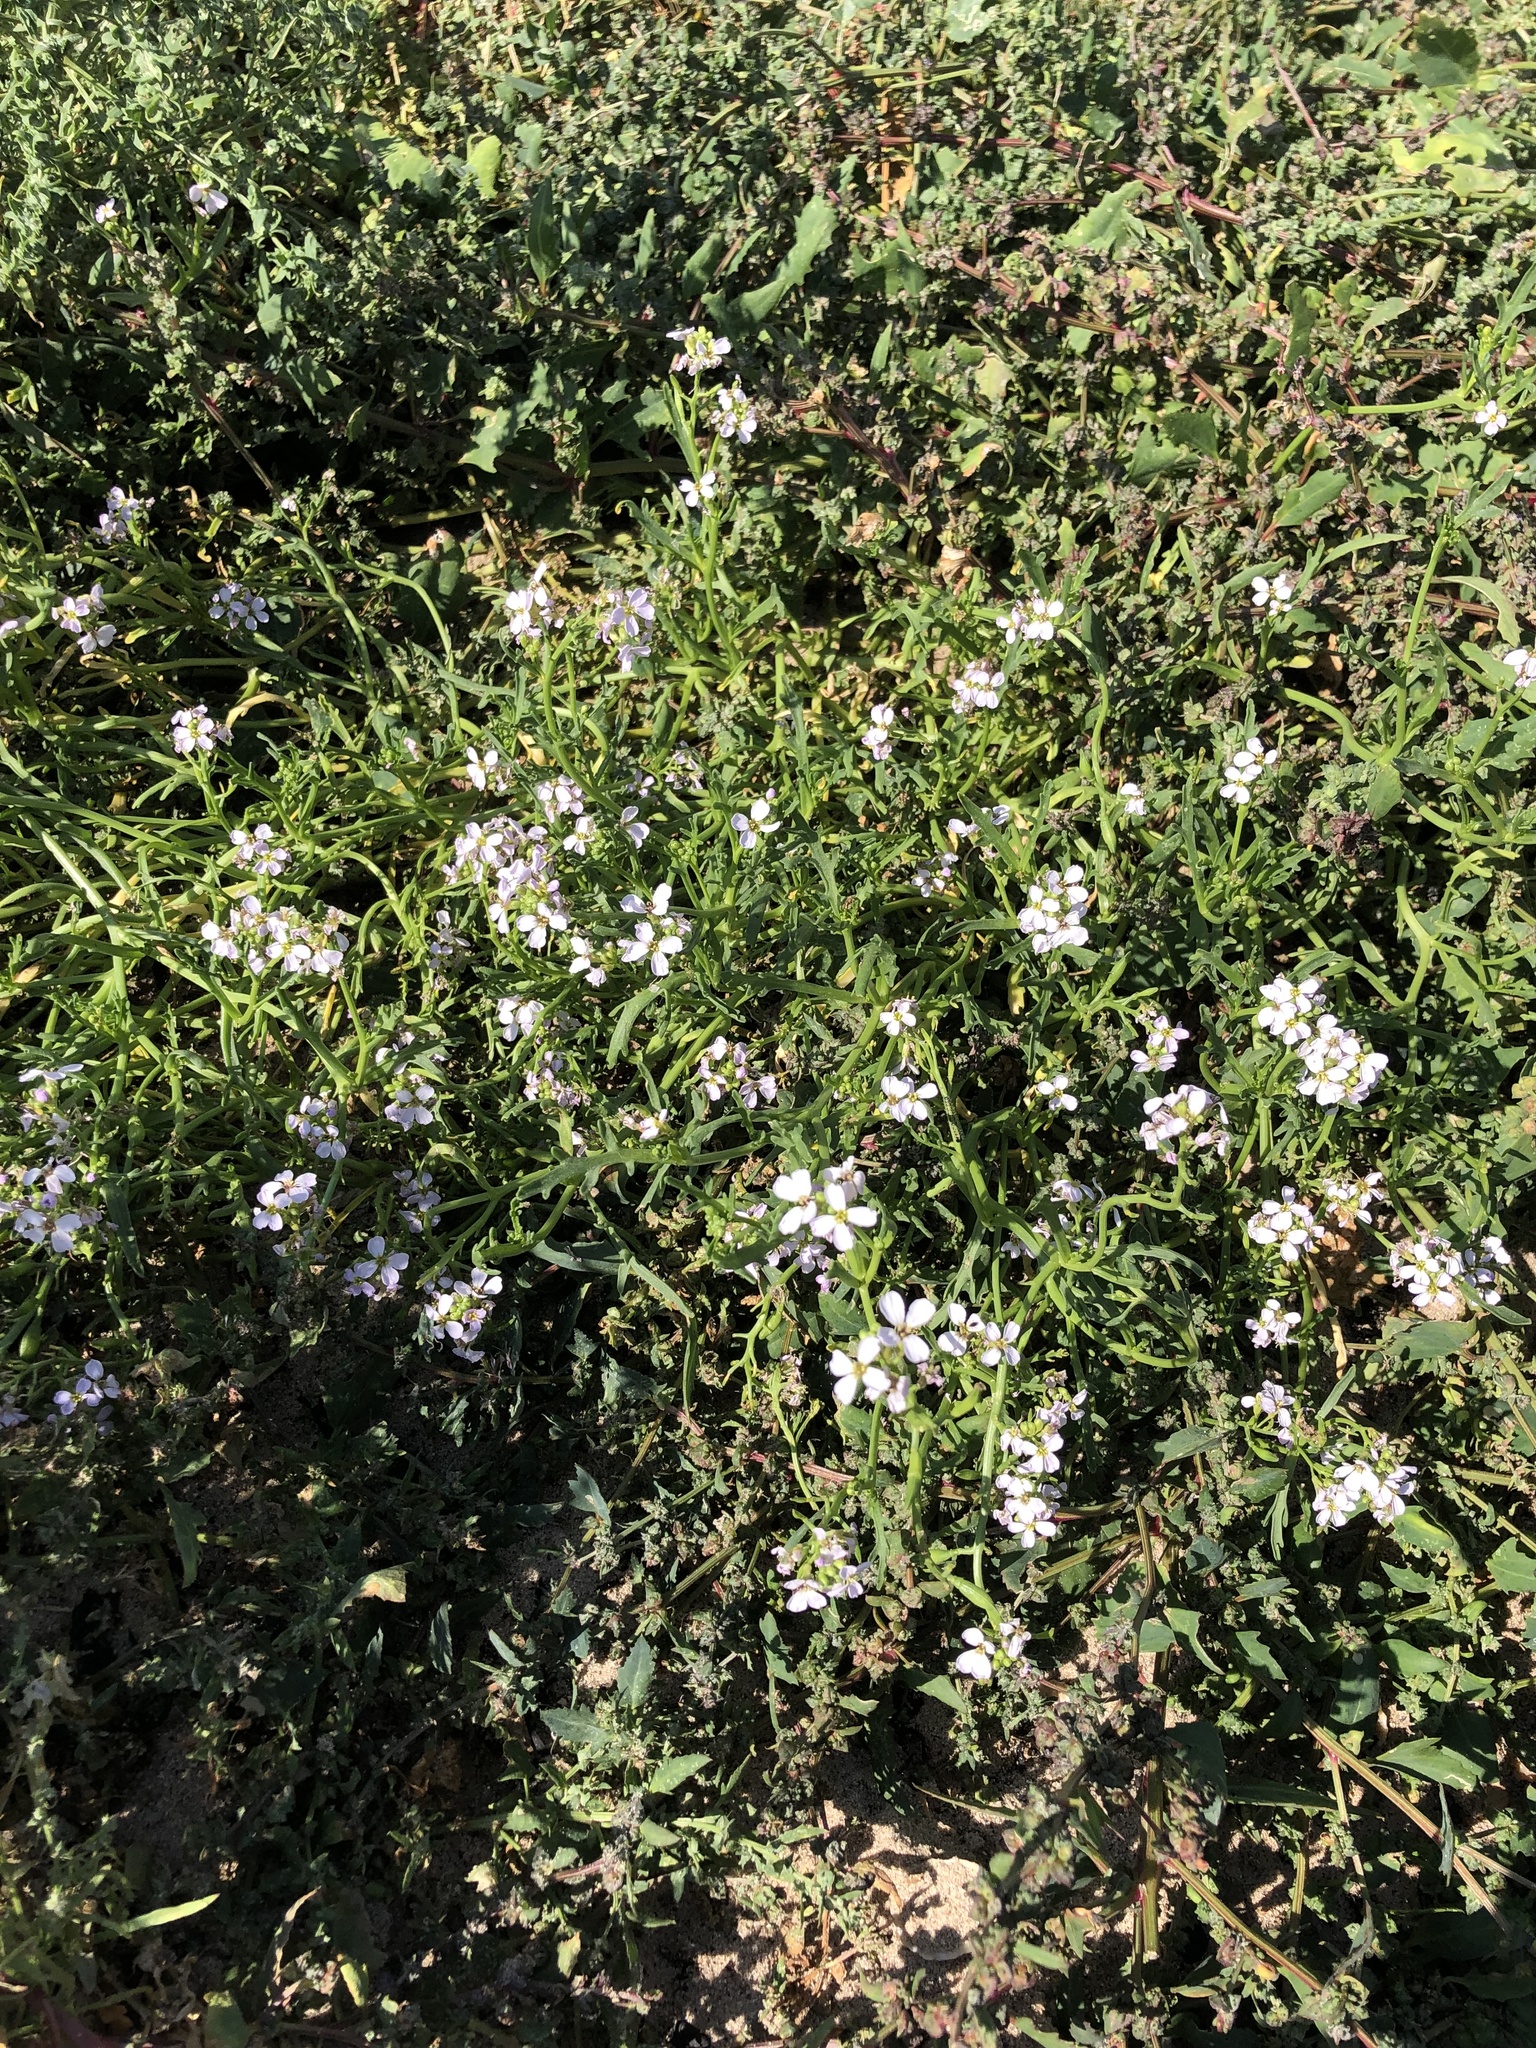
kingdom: Plantae
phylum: Tracheophyta
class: Magnoliopsida
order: Brassicales
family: Brassicaceae
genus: Cakile
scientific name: Cakile maritima
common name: Sea rocket
